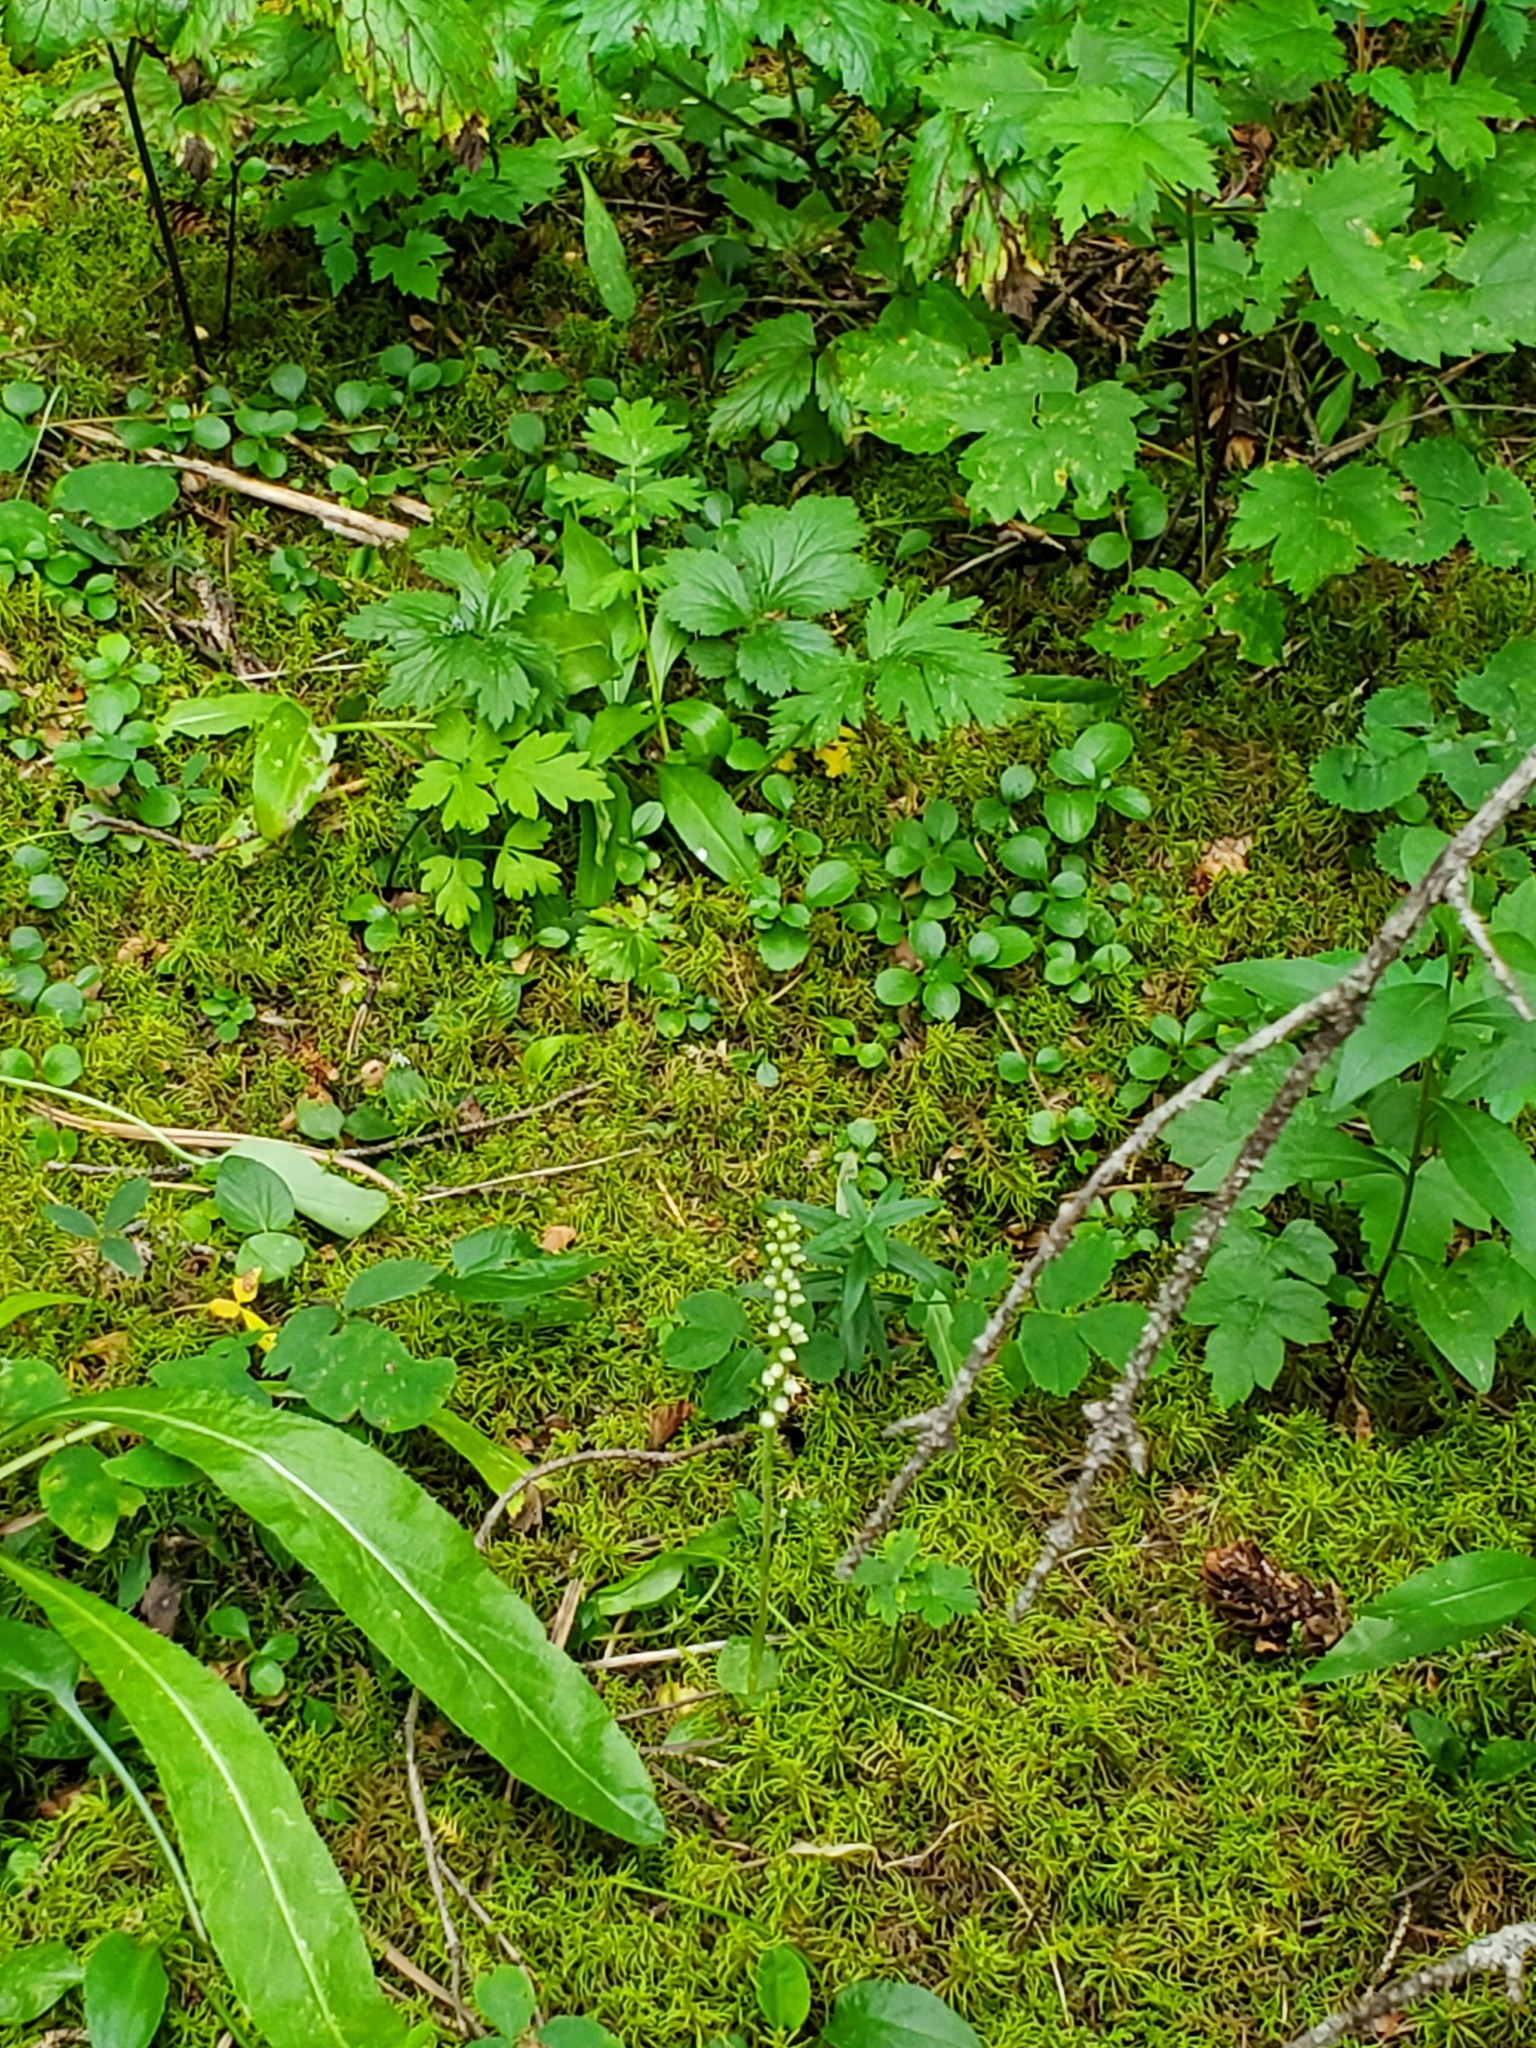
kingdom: Plantae
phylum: Tracheophyta
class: Liliopsida
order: Asparagales
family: Orchidaceae
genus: Goodyera
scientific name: Goodyera repens
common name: Creeping lady's-tresses
